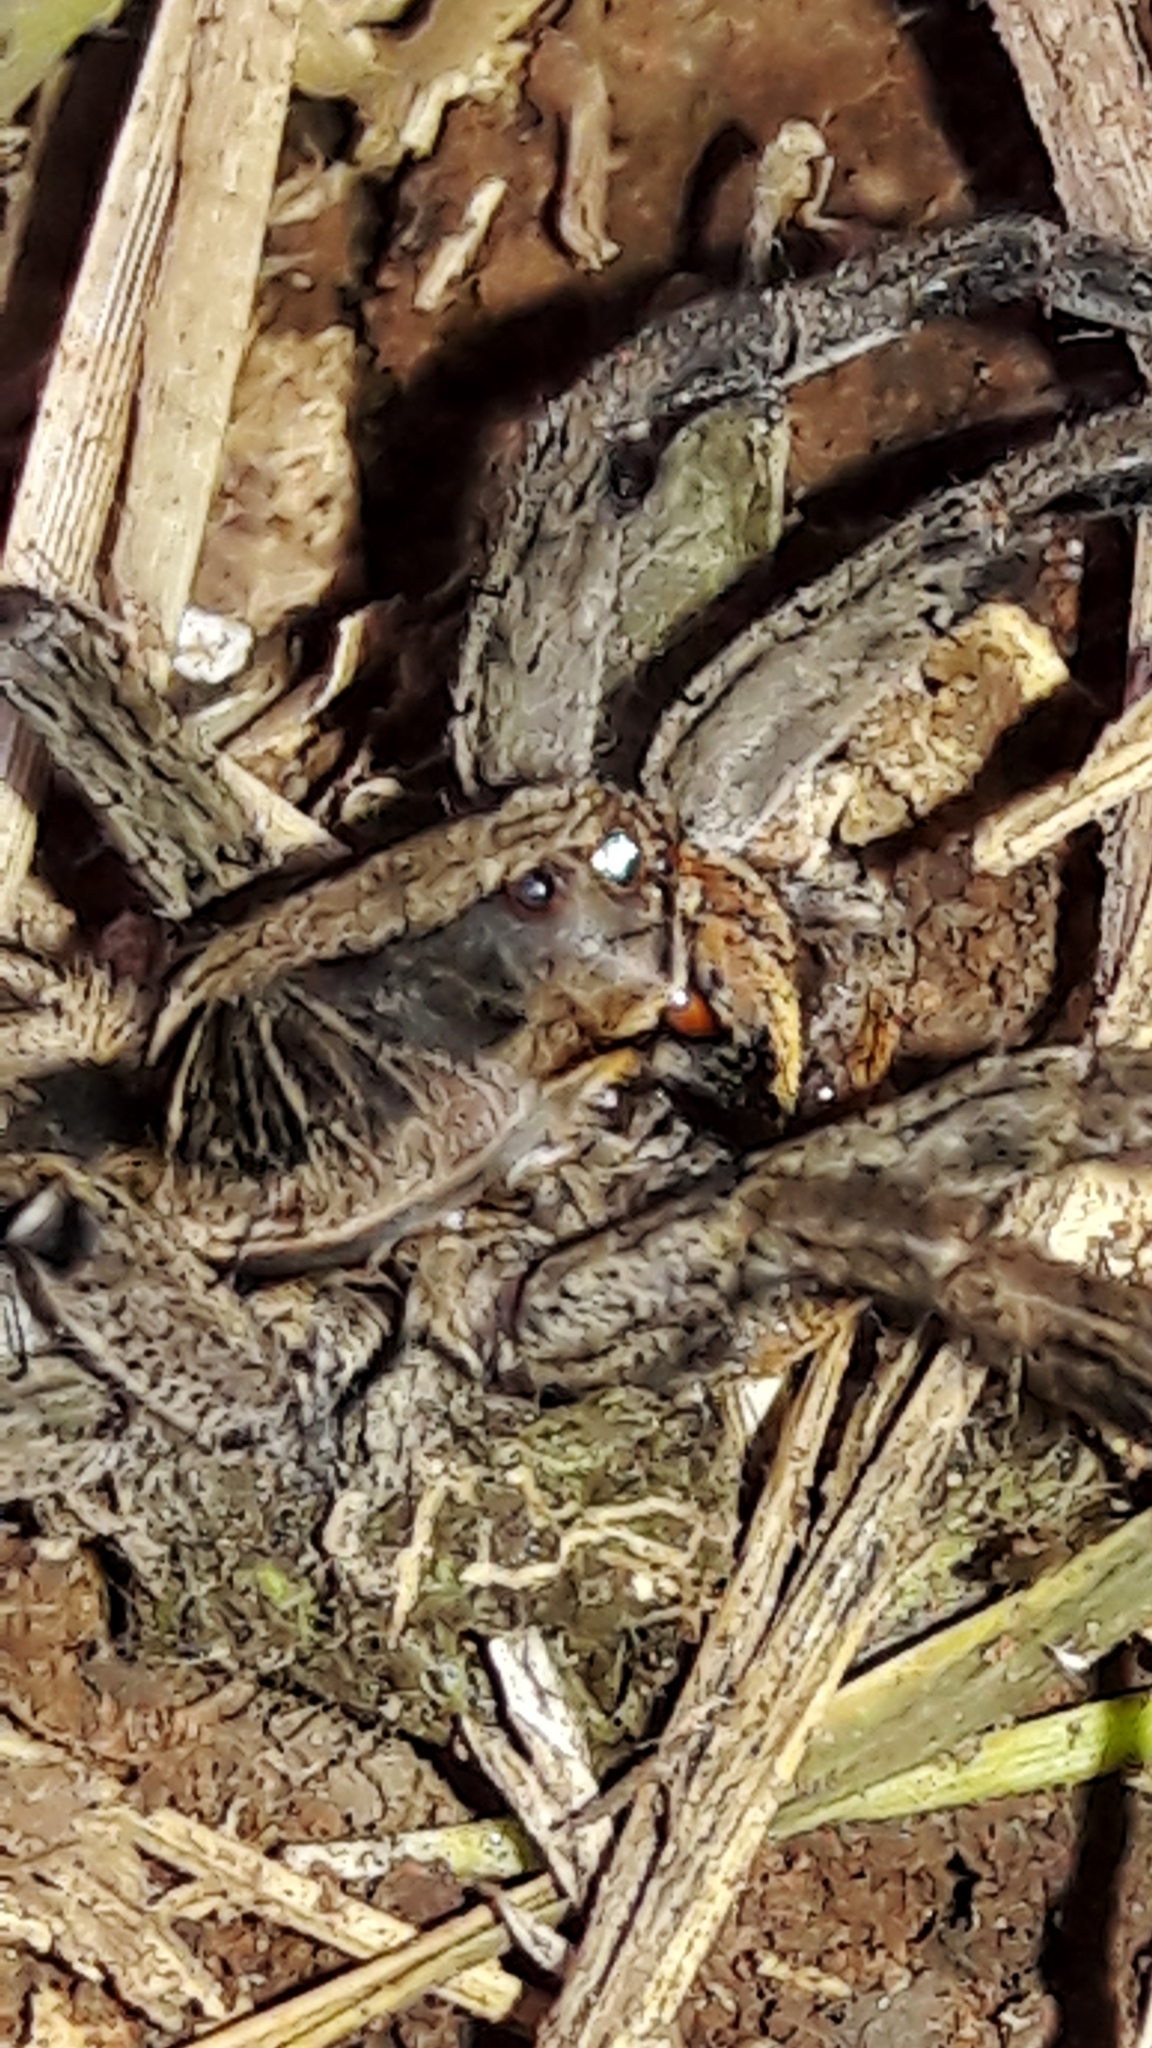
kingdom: Animalia
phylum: Arthropoda
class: Arachnida
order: Araneae
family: Lycosidae
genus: Lycosa
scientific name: Lycosa erythrognatha
